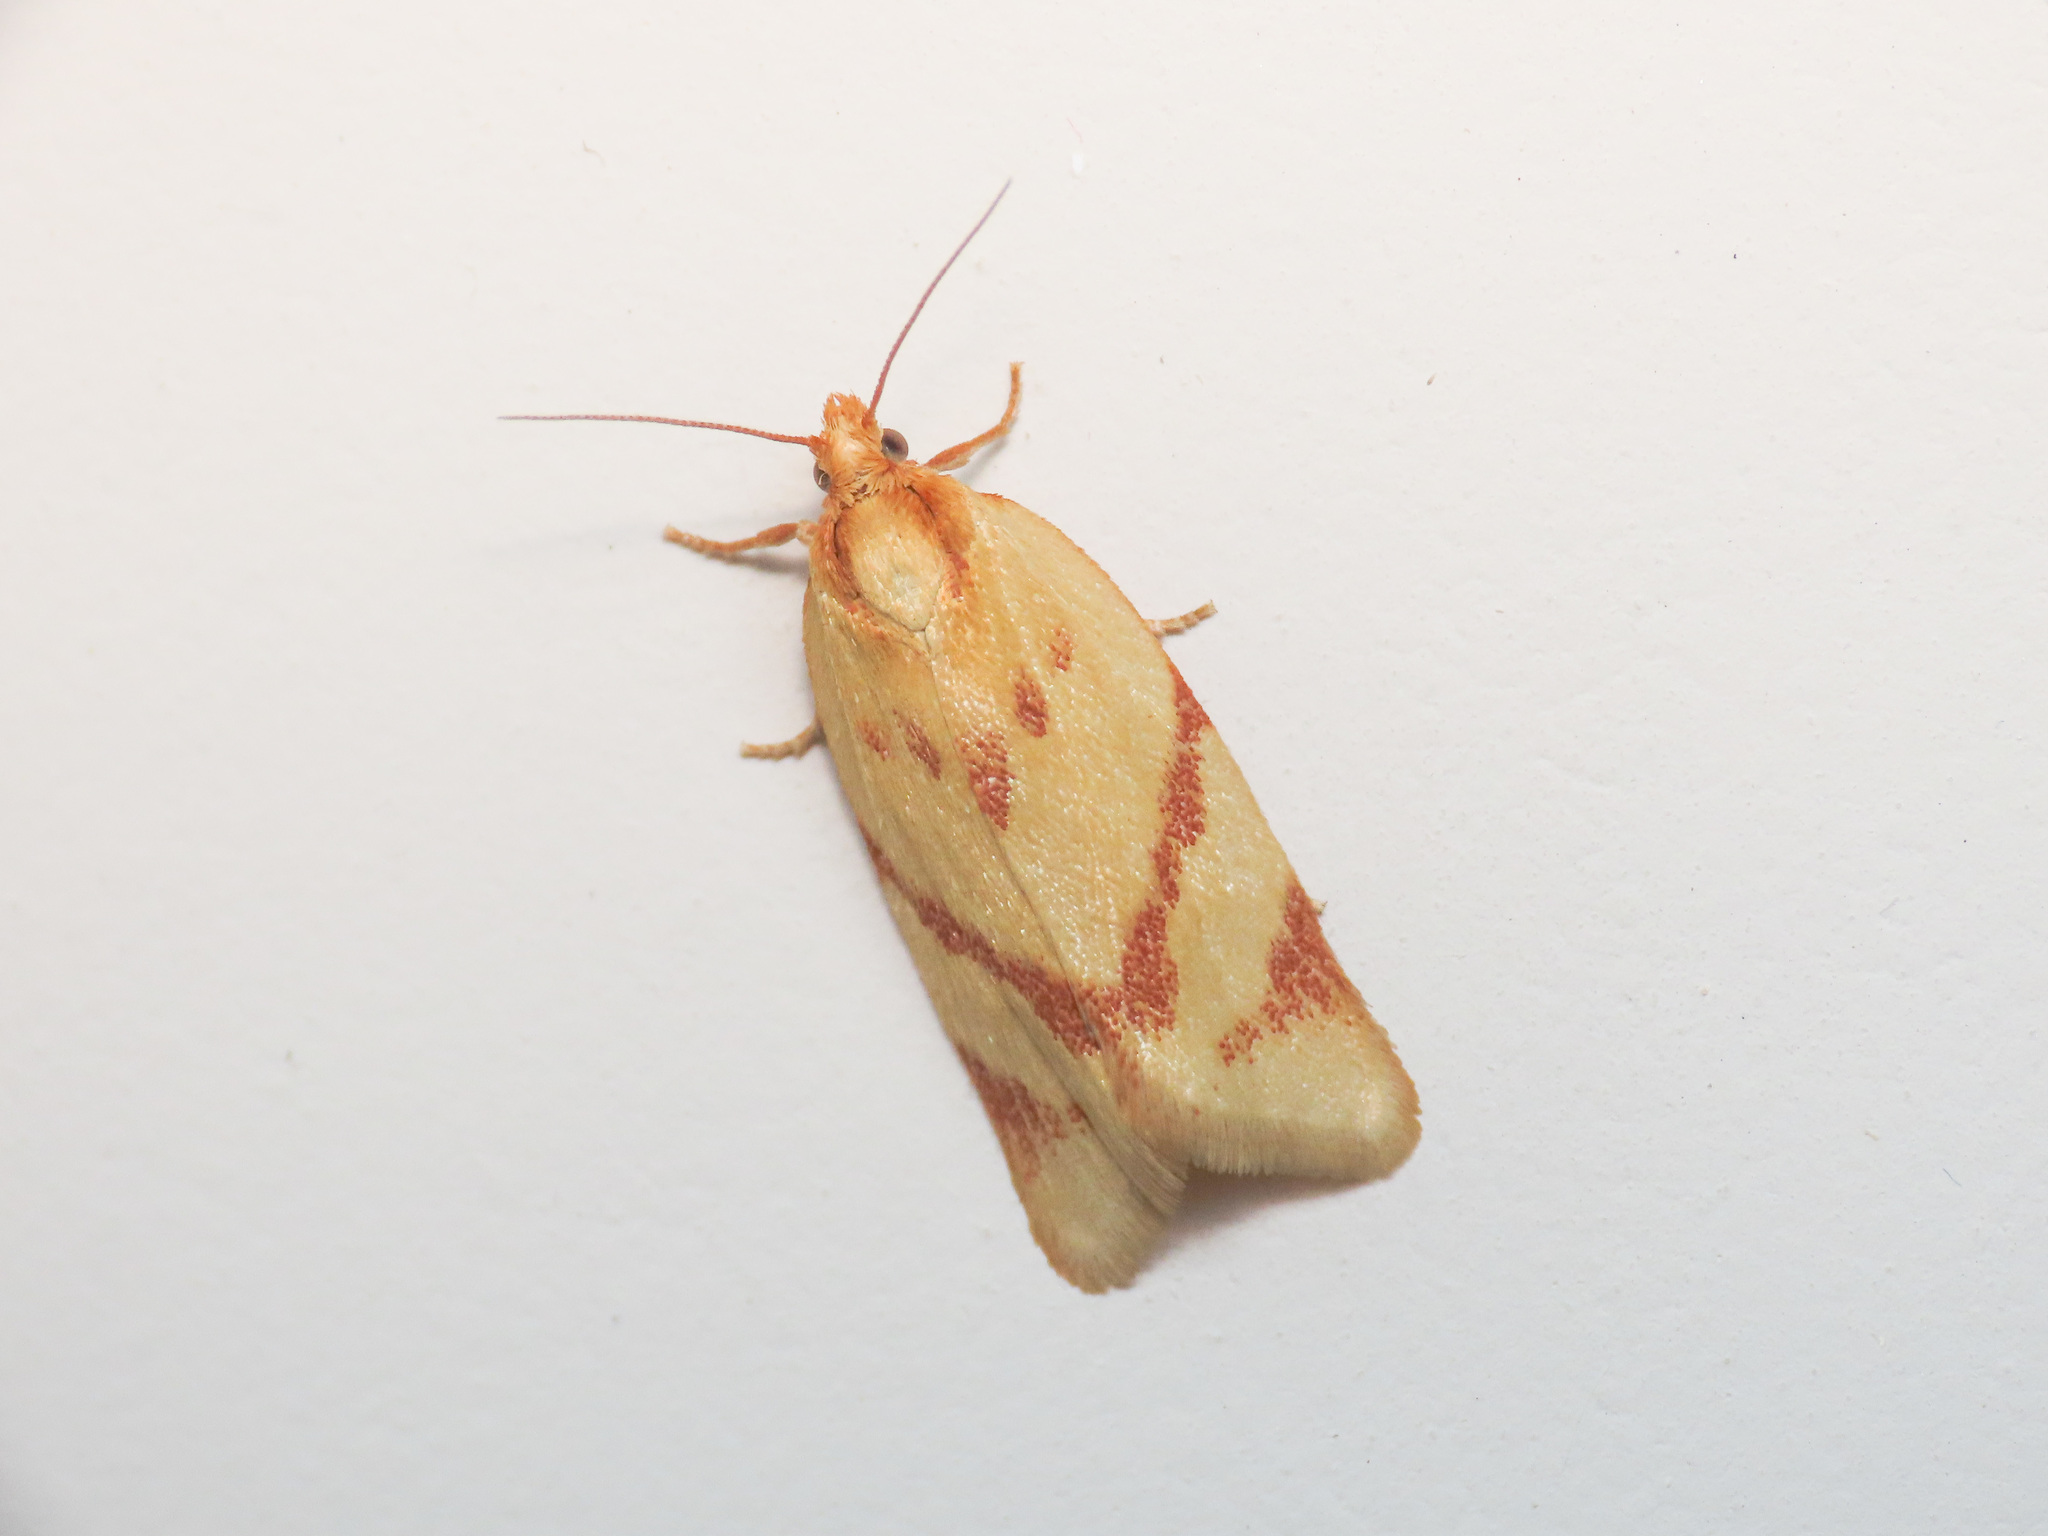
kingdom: Animalia
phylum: Arthropoda
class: Insecta
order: Lepidoptera
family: Tortricidae
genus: Clepsis
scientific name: Clepsis pallidana
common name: Sheep's-bit conch
